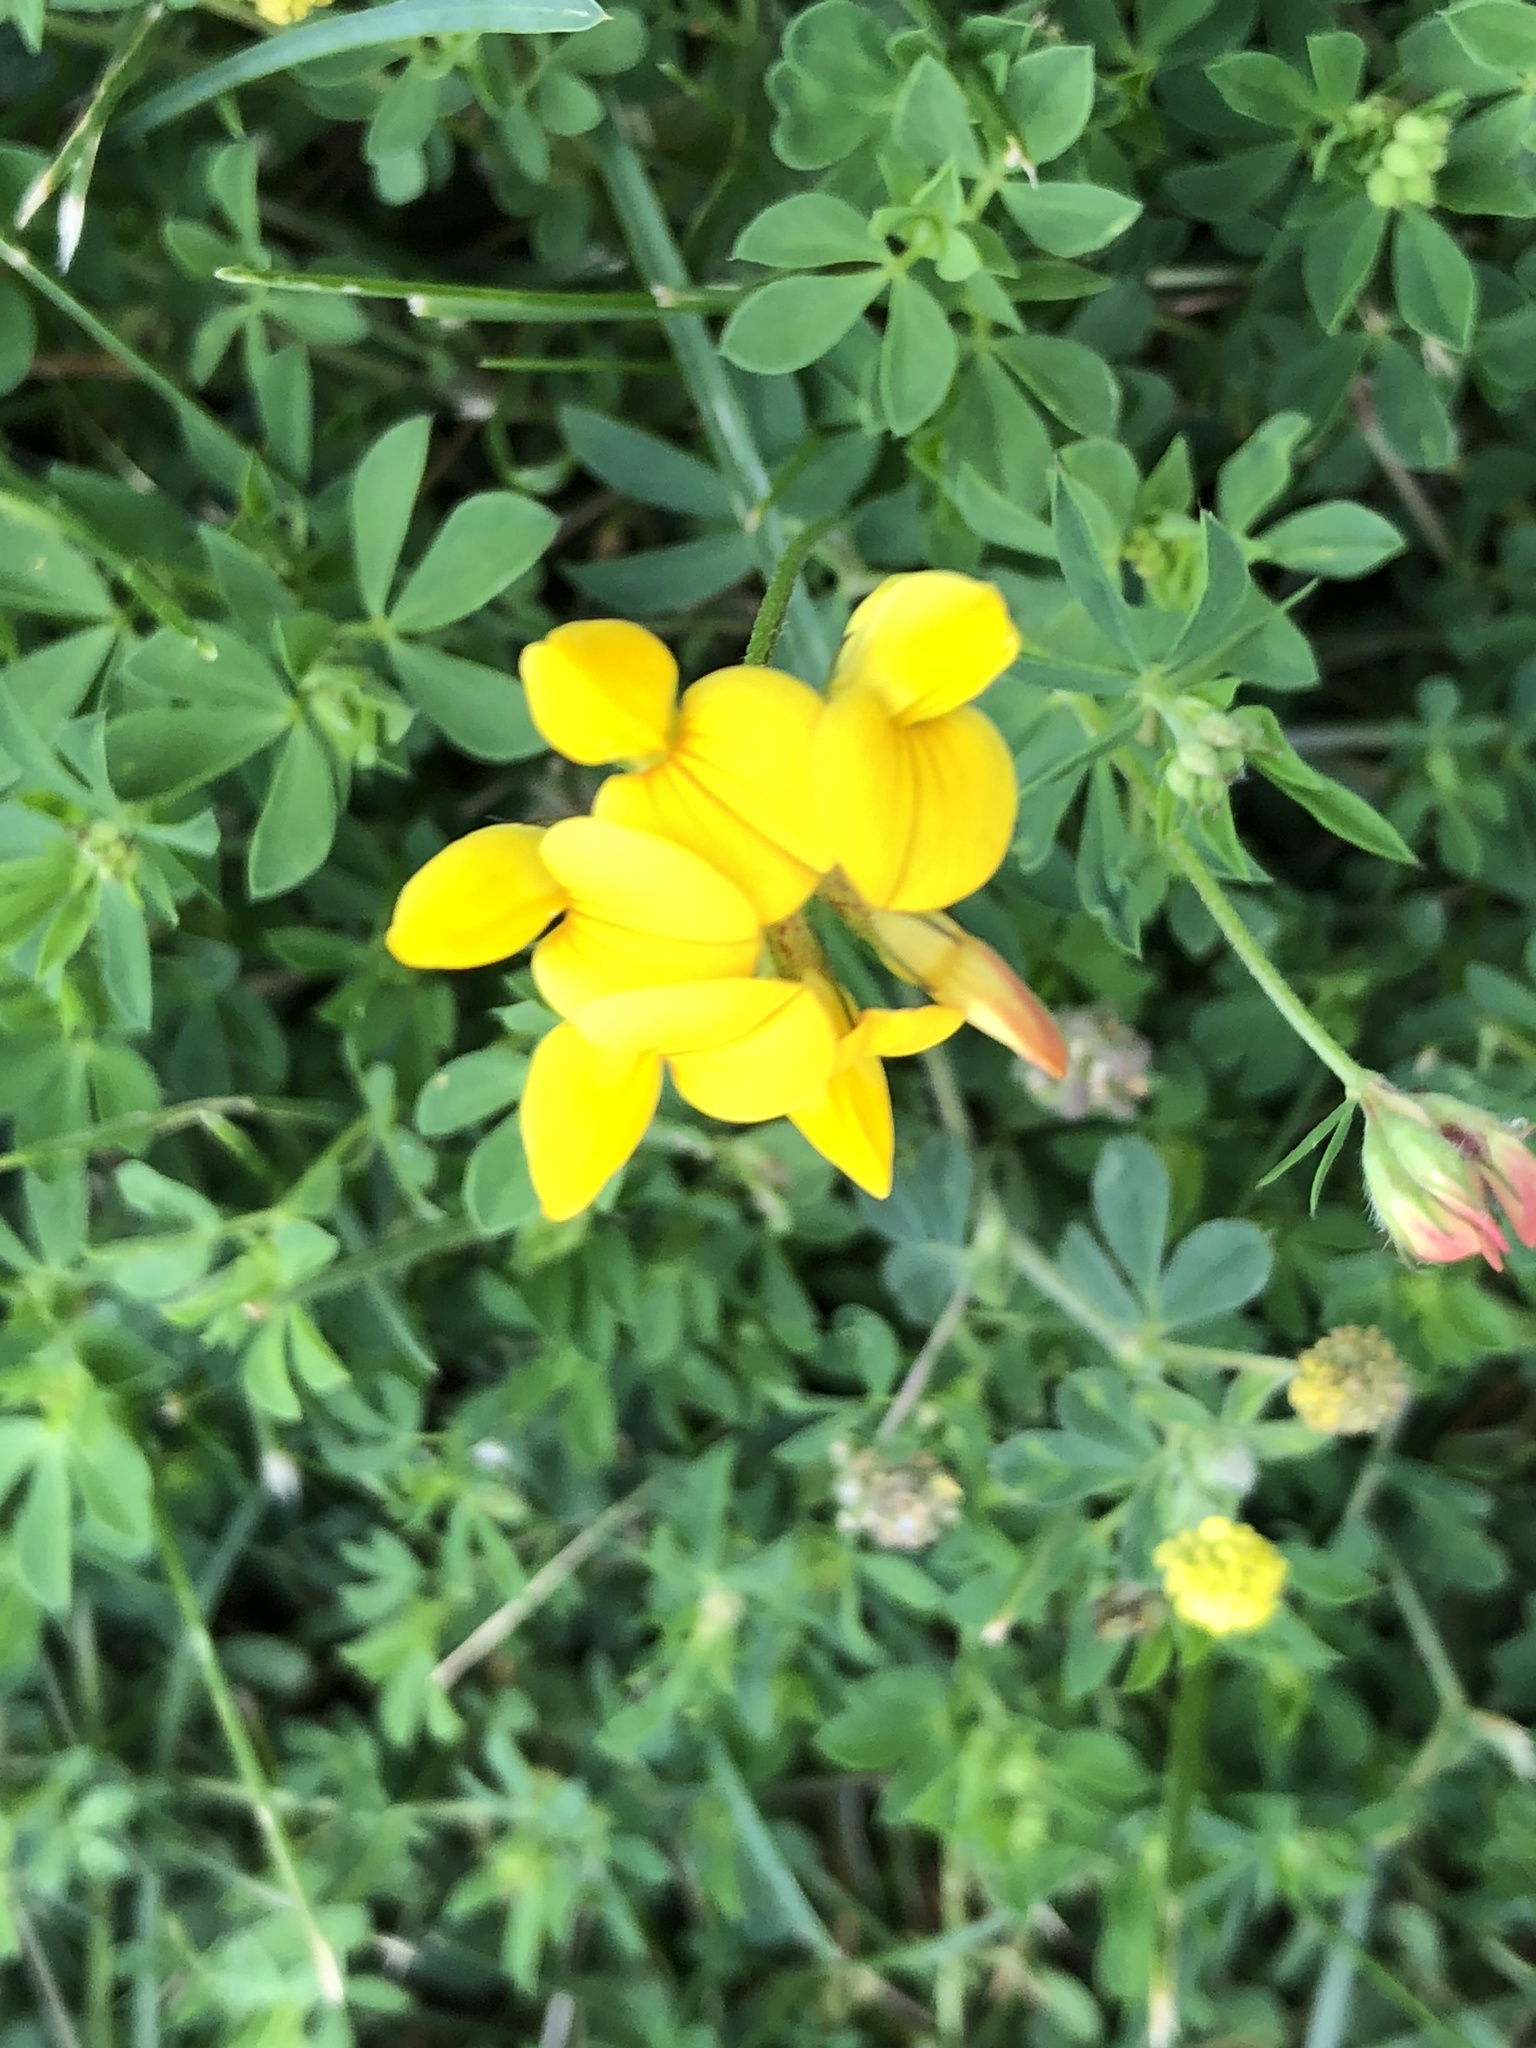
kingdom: Plantae
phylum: Tracheophyta
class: Magnoliopsida
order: Fabales
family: Fabaceae
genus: Lotus
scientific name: Lotus corniculatus
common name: Common bird's-foot-trefoil
